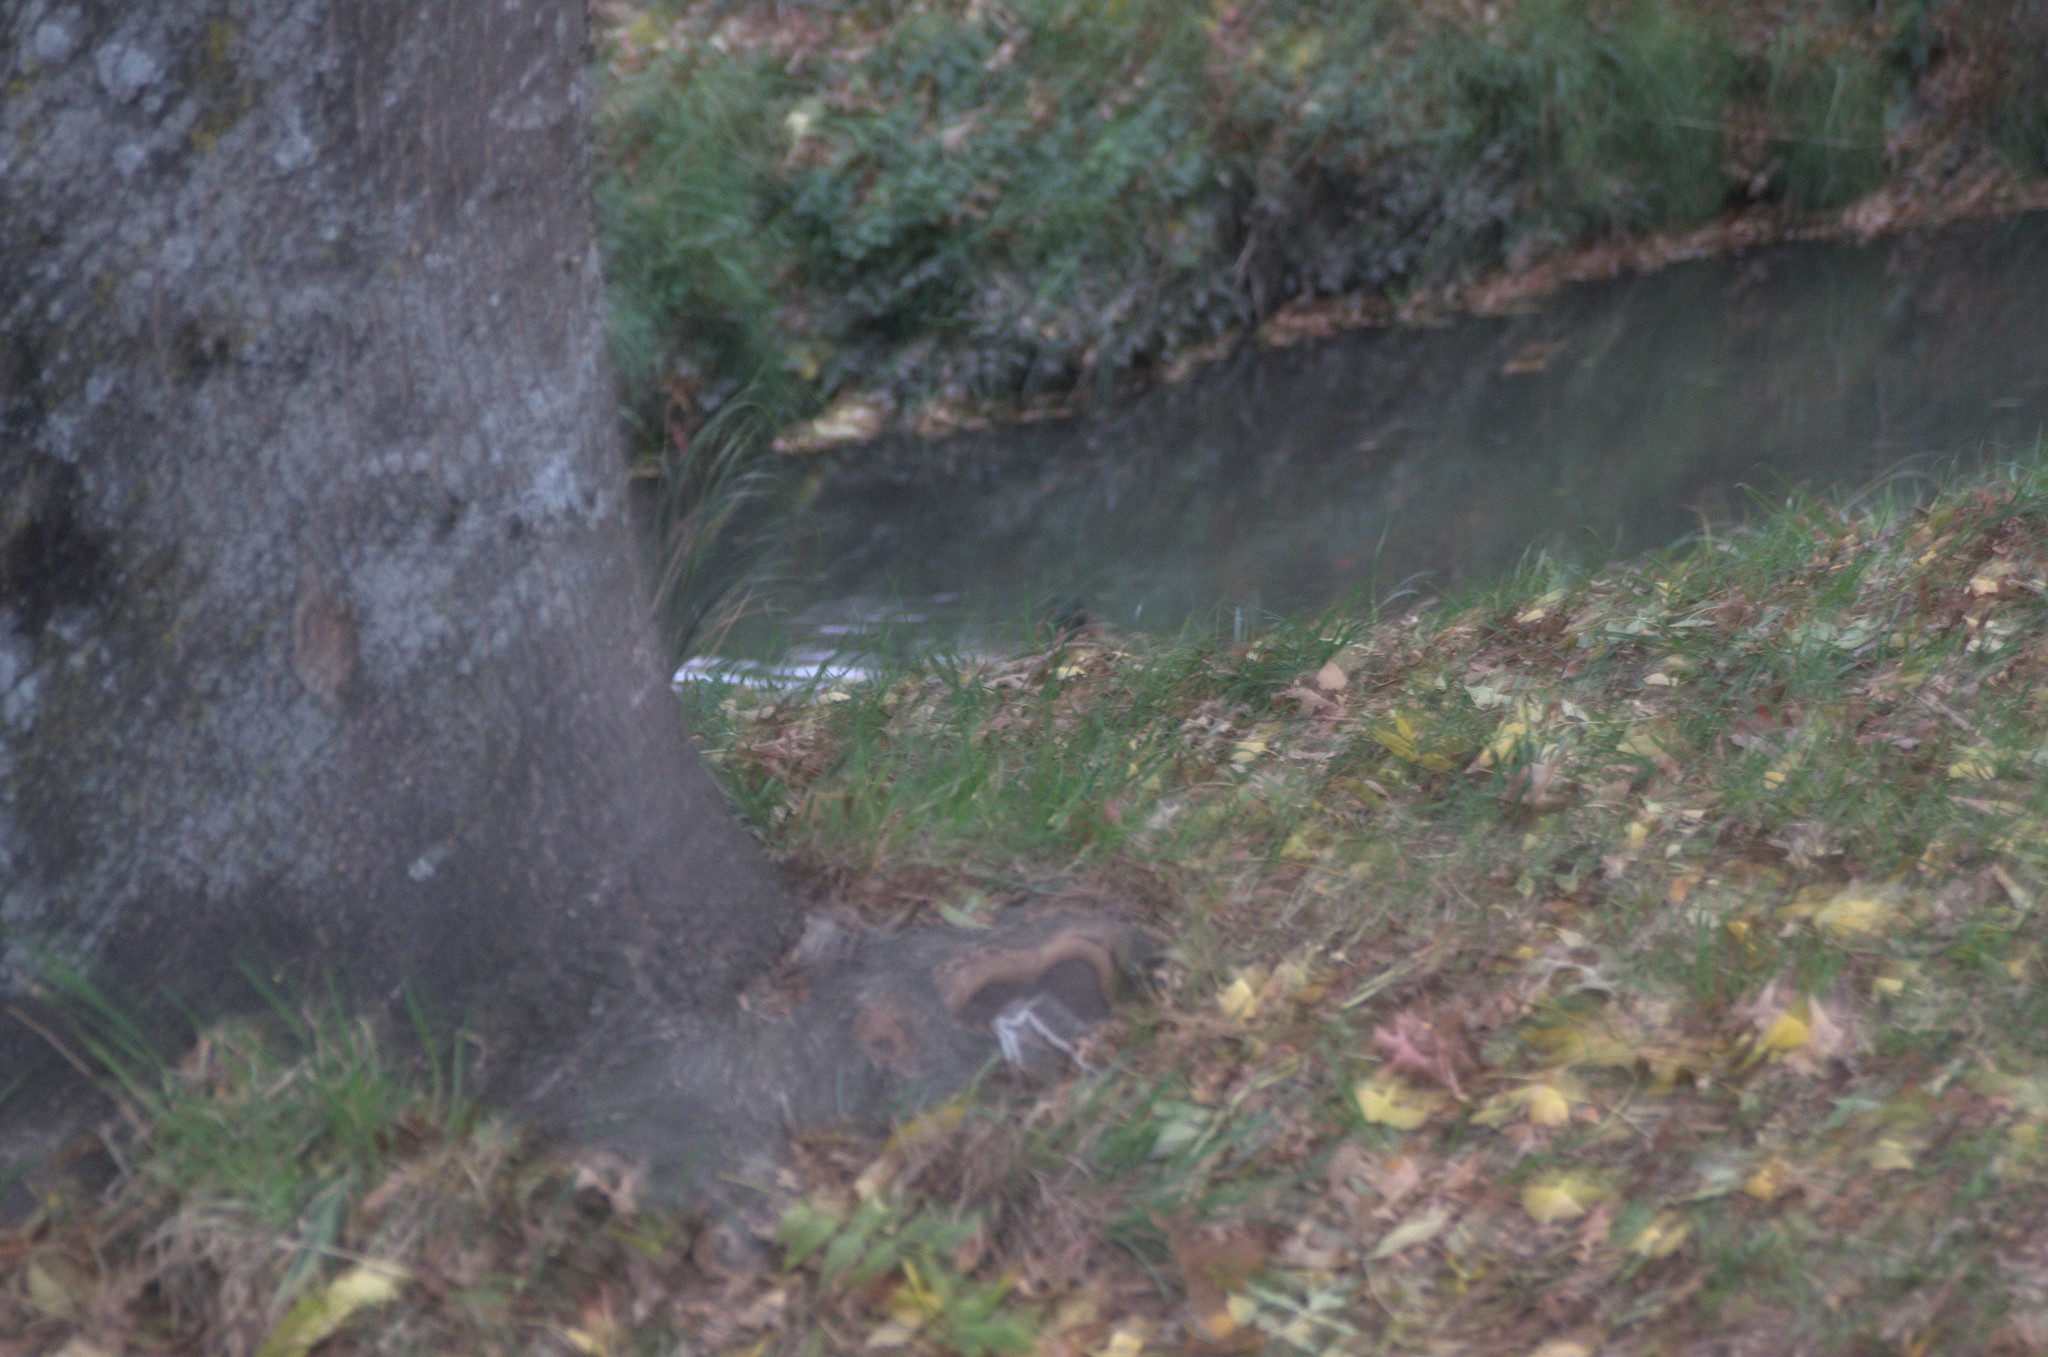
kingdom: Animalia
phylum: Chordata
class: Aves
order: Anseriformes
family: Anatidae
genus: Anas
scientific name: Anas platyrhynchos
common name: Mallard
